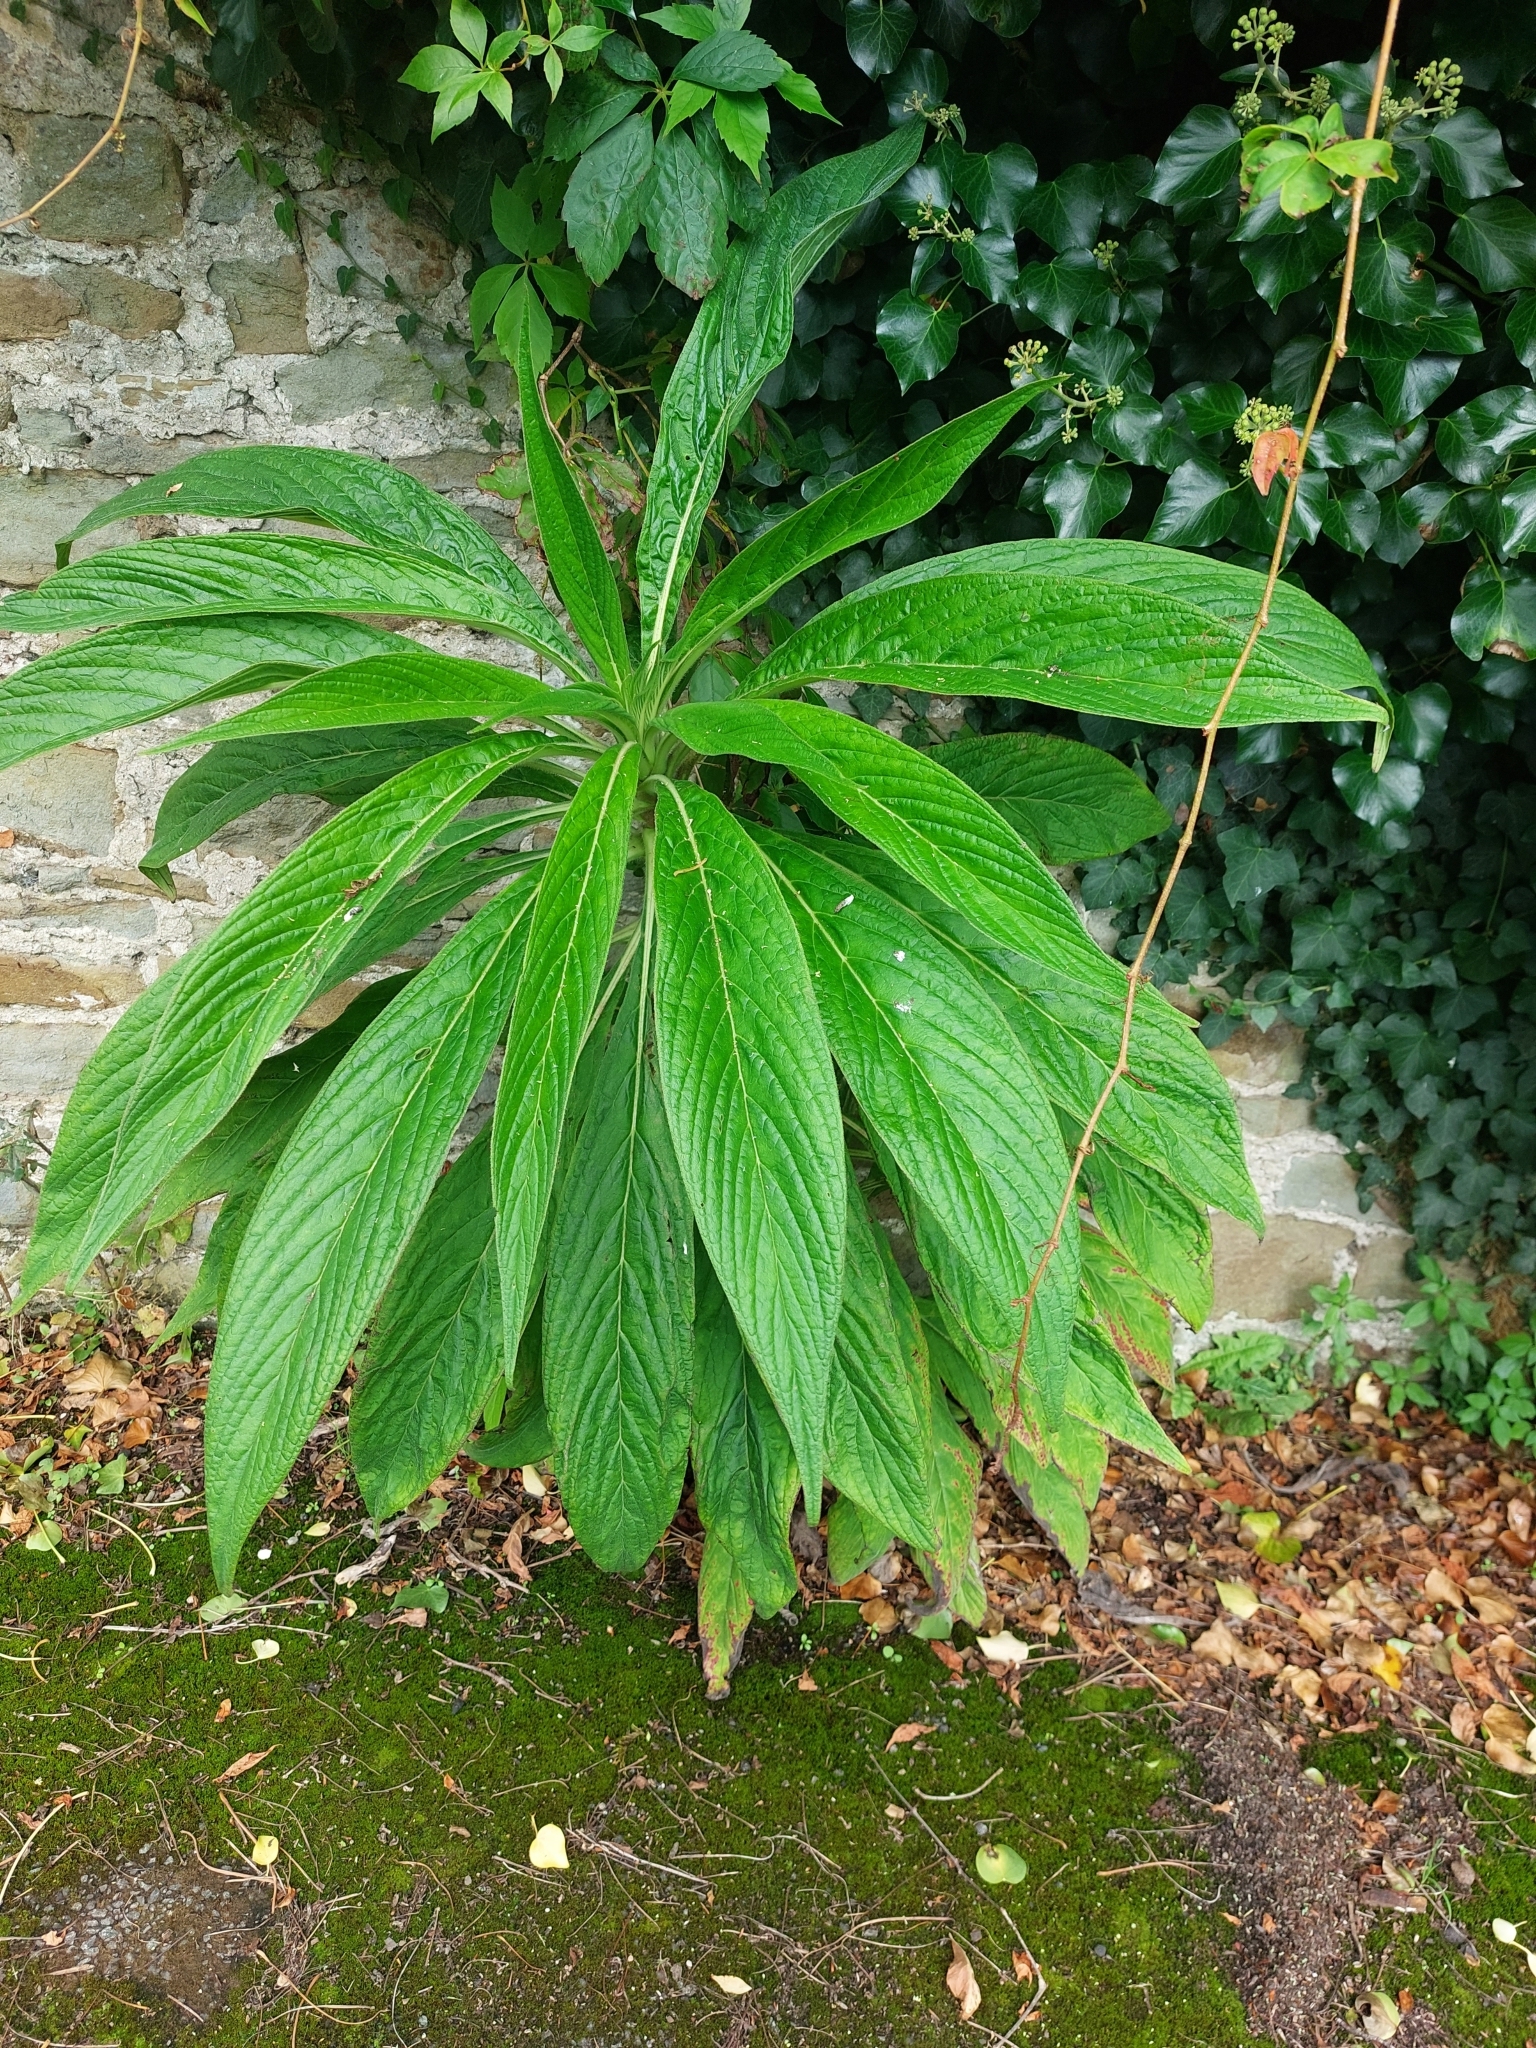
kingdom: Plantae
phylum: Tracheophyta
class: Magnoliopsida
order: Boraginales
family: Boraginaceae
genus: Echium
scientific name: Echium pininana
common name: Giant viper's-bugloss
